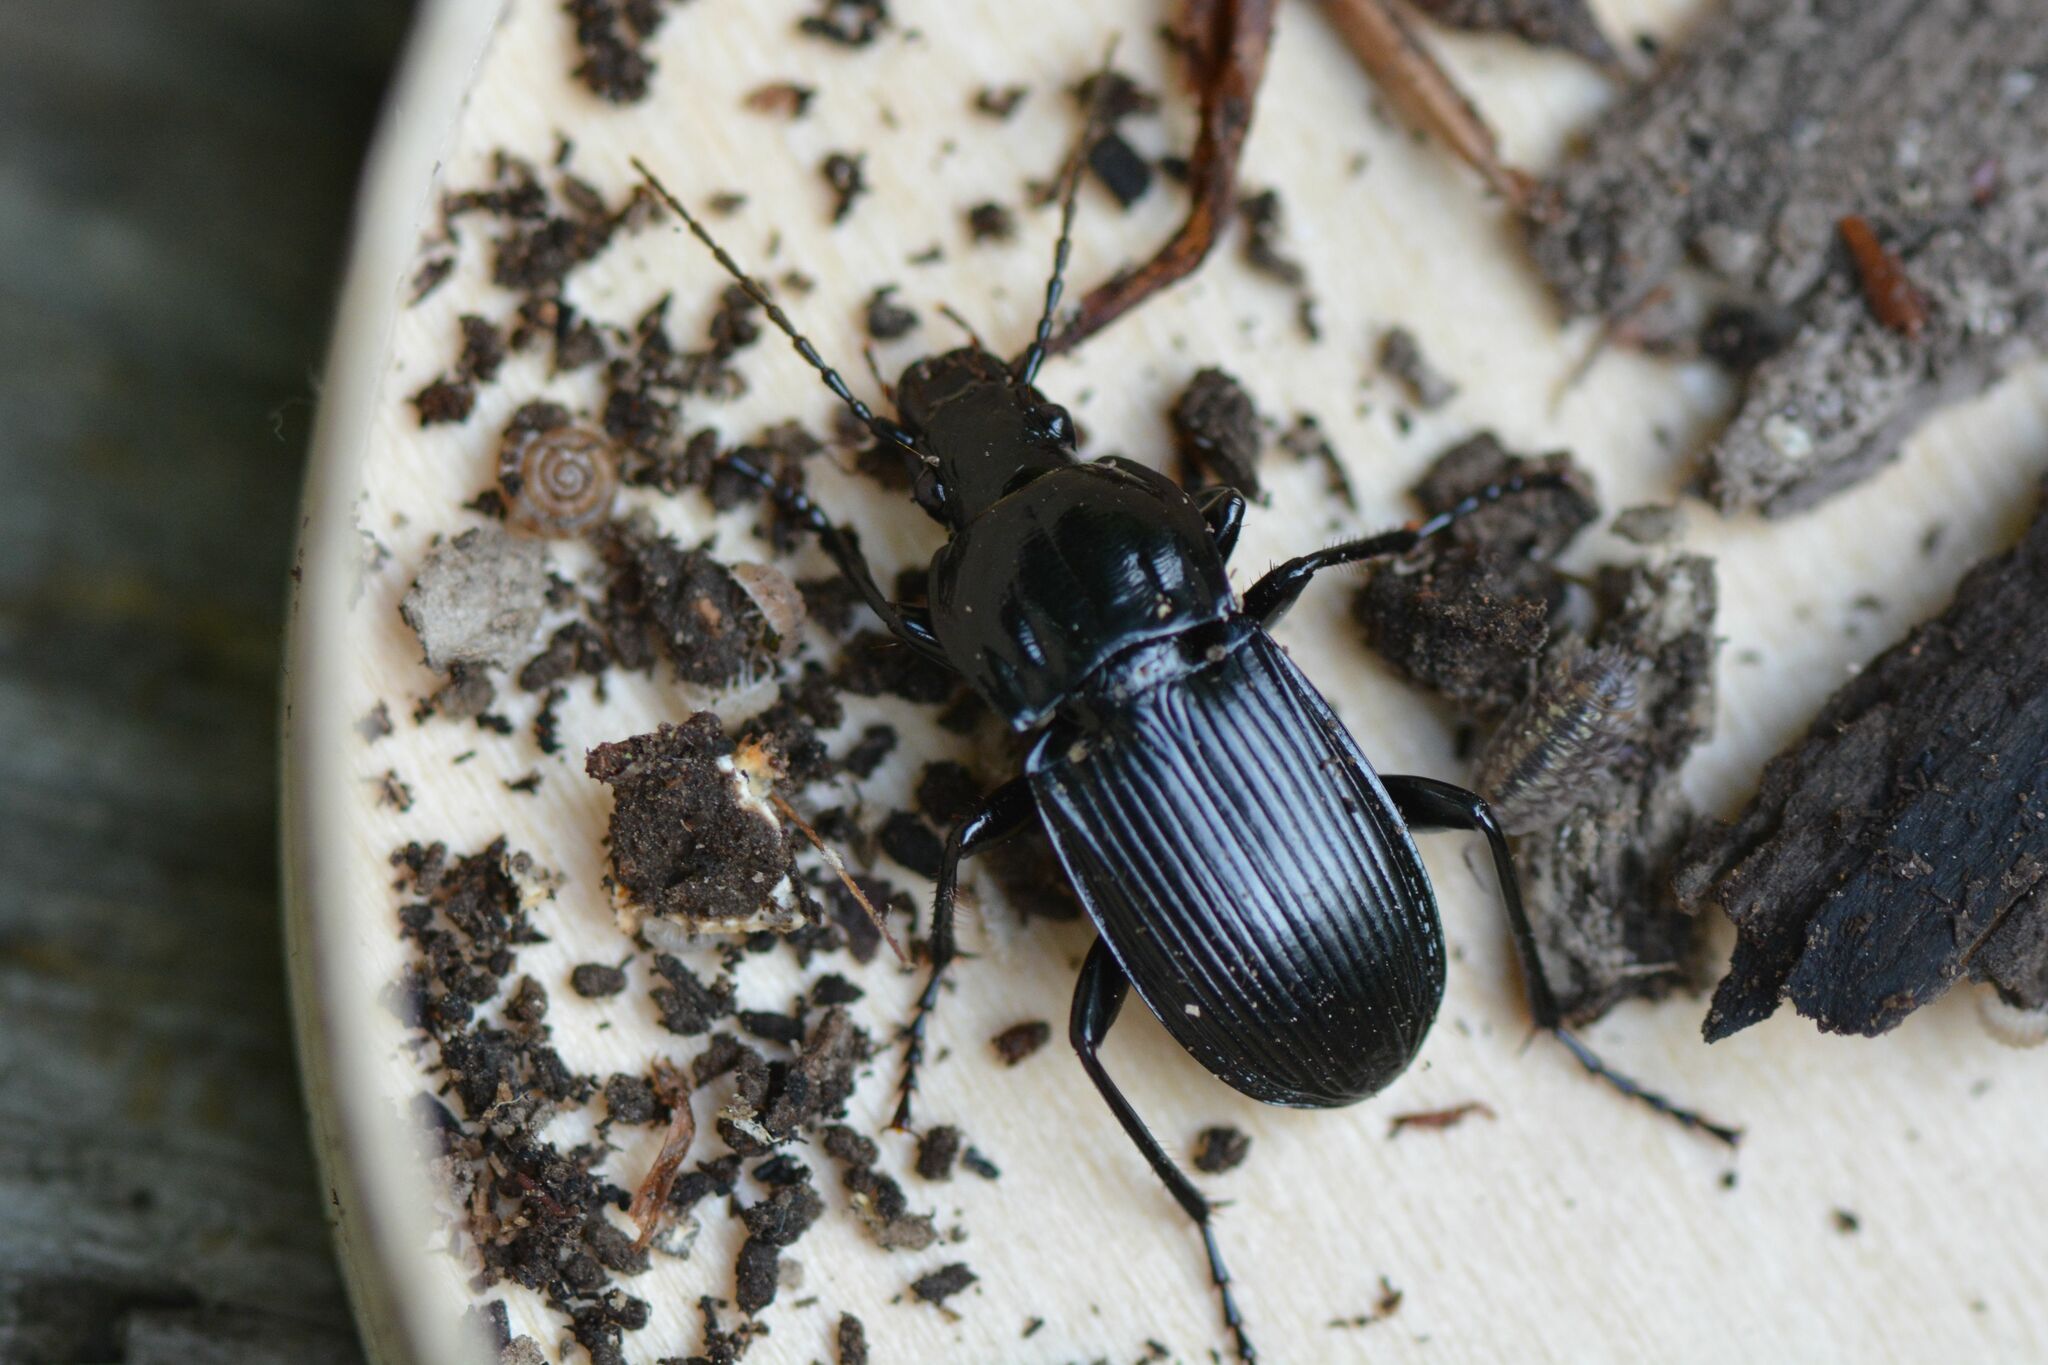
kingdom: Animalia
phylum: Arthropoda
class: Insecta
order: Coleoptera
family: Carabidae
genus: Abax
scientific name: Abax parallelepipedus
